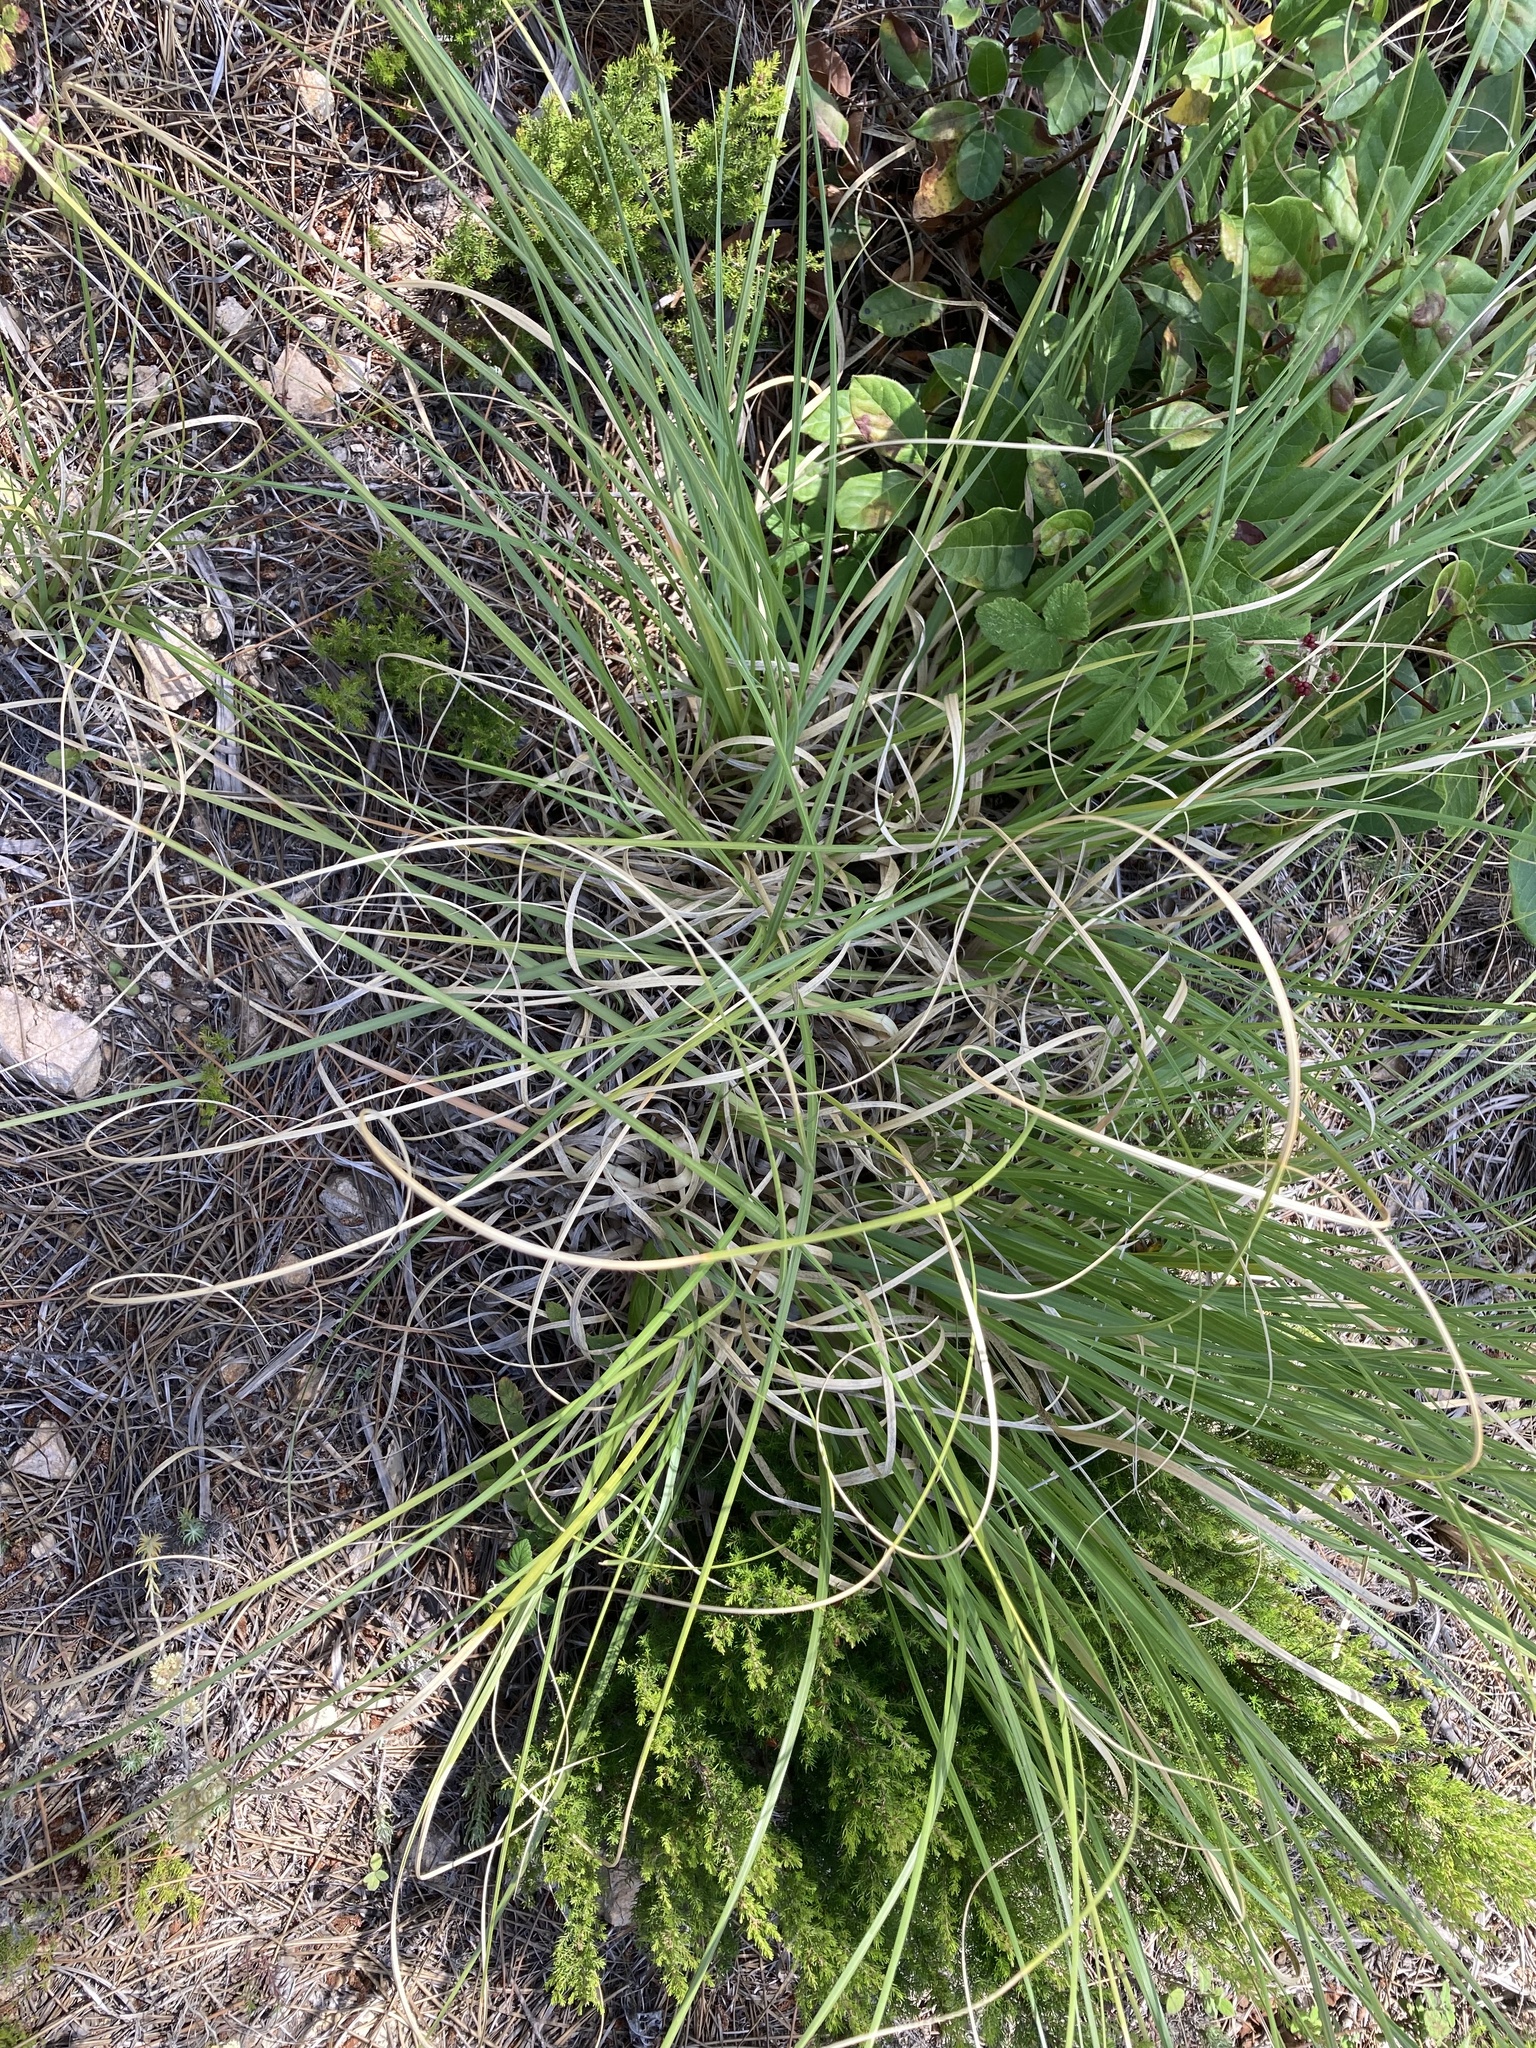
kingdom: Plantae
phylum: Tracheophyta
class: Liliopsida
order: Poales
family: Poaceae
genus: Cortaderia
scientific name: Cortaderia selloana
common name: Uruguayan pampas grass
